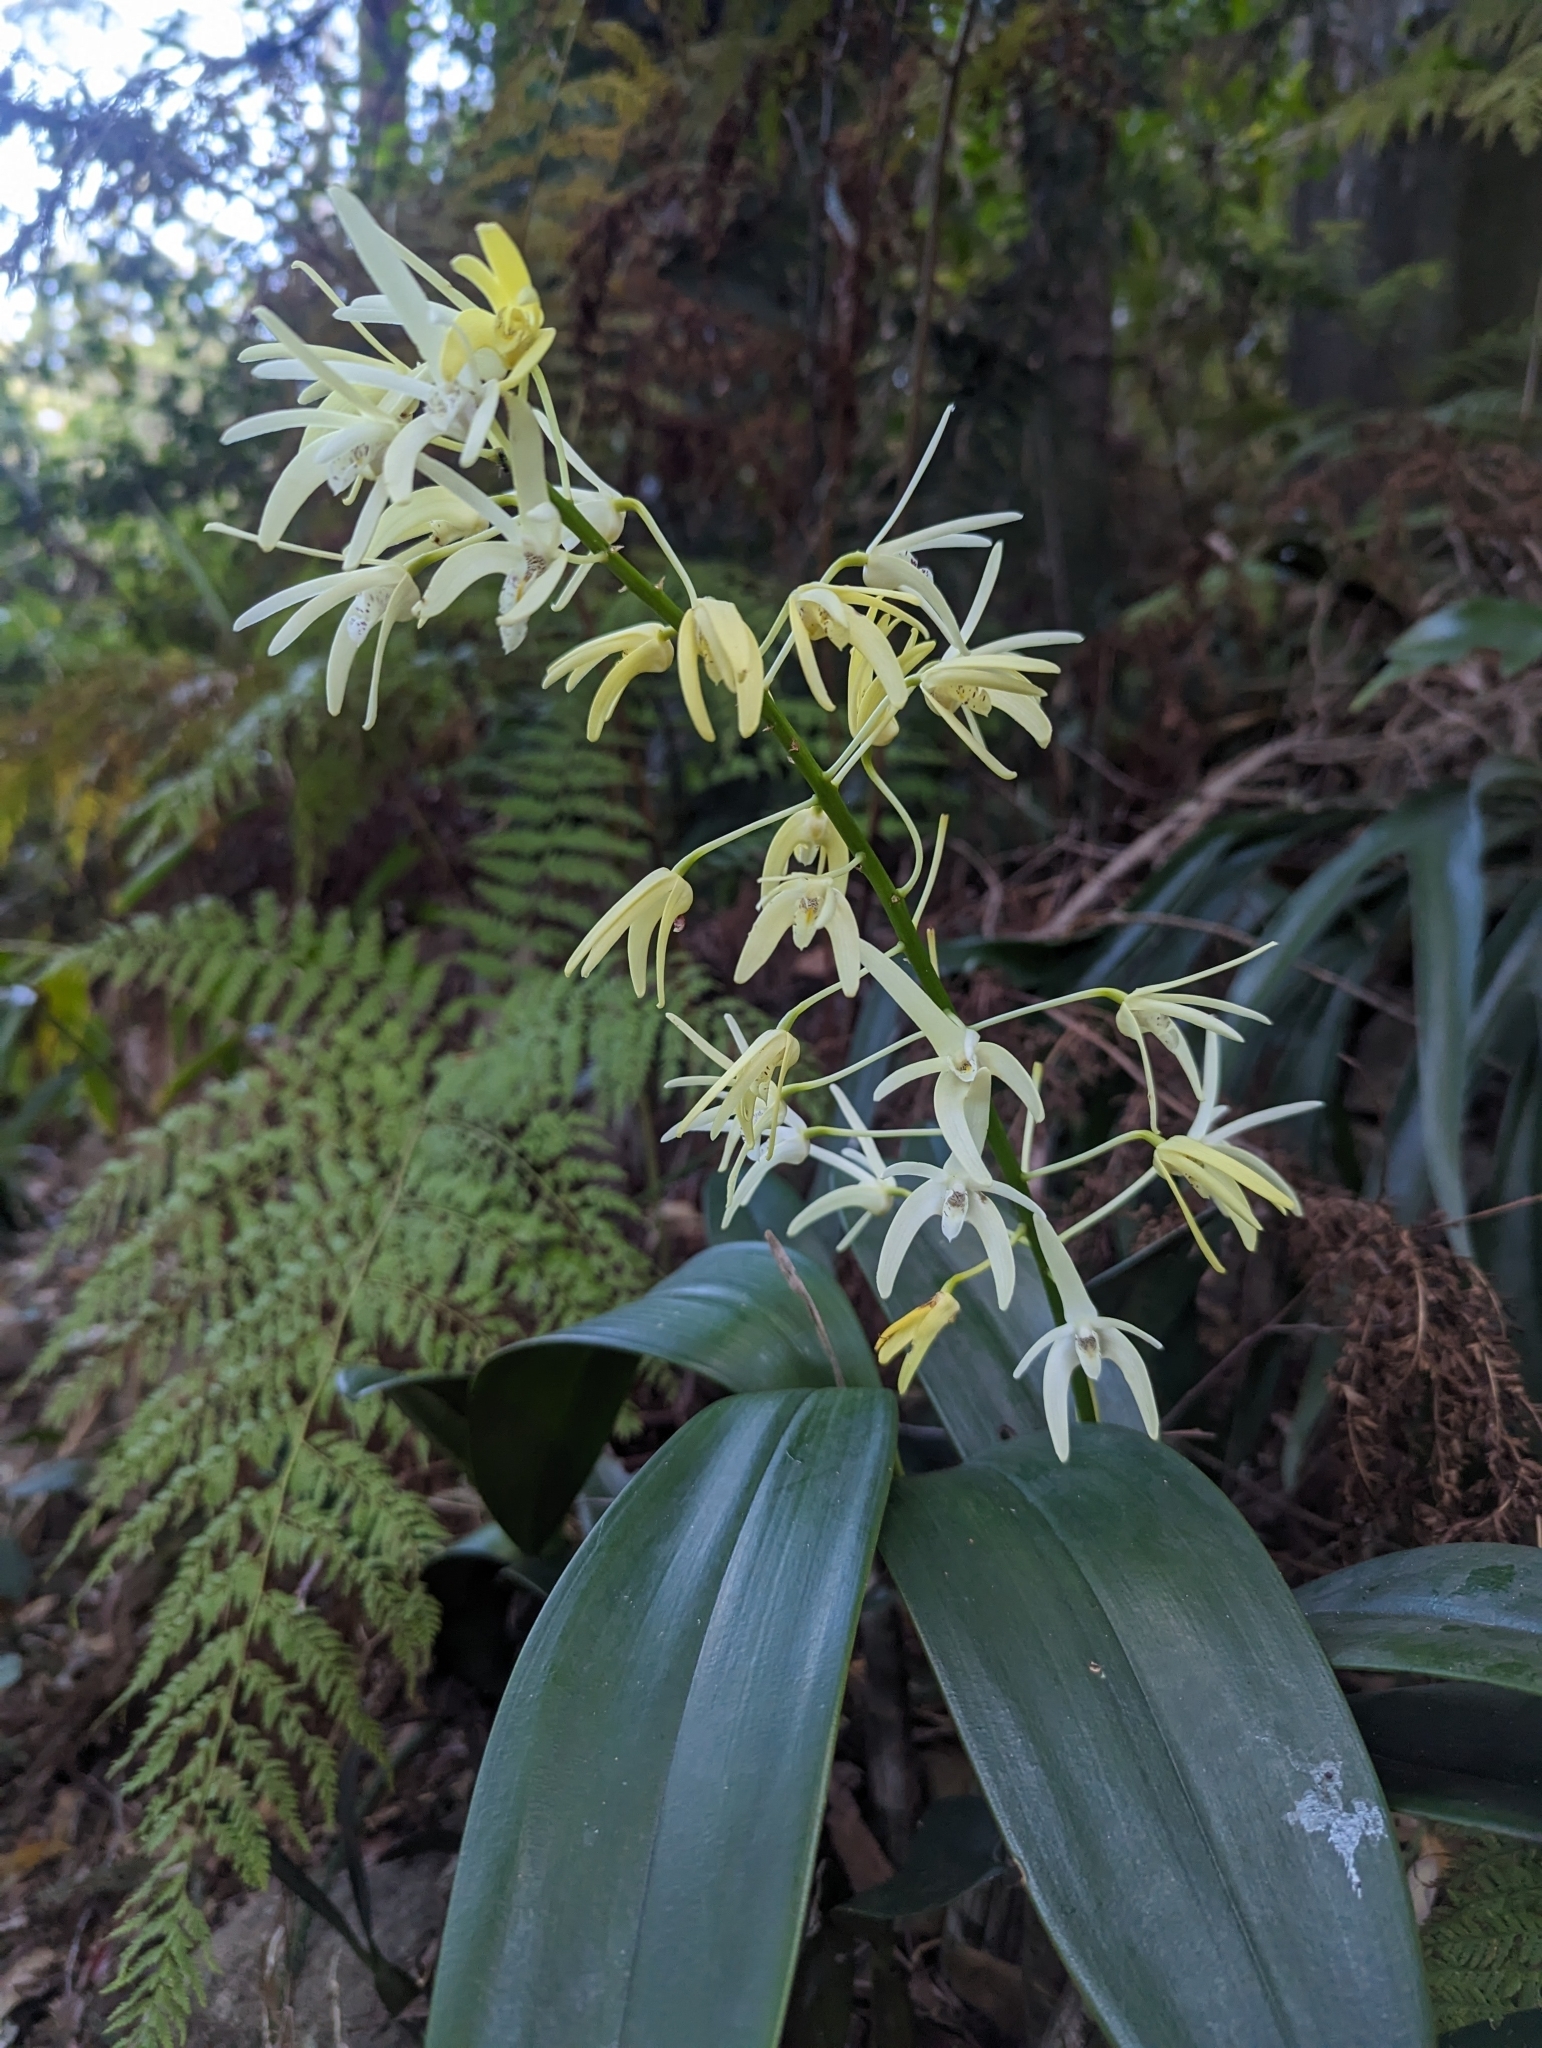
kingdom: Plantae
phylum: Tracheophyta
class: Liliopsida
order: Asparagales
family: Orchidaceae
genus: Dendrobium
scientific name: Dendrobium speciosum
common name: Rock-lily
